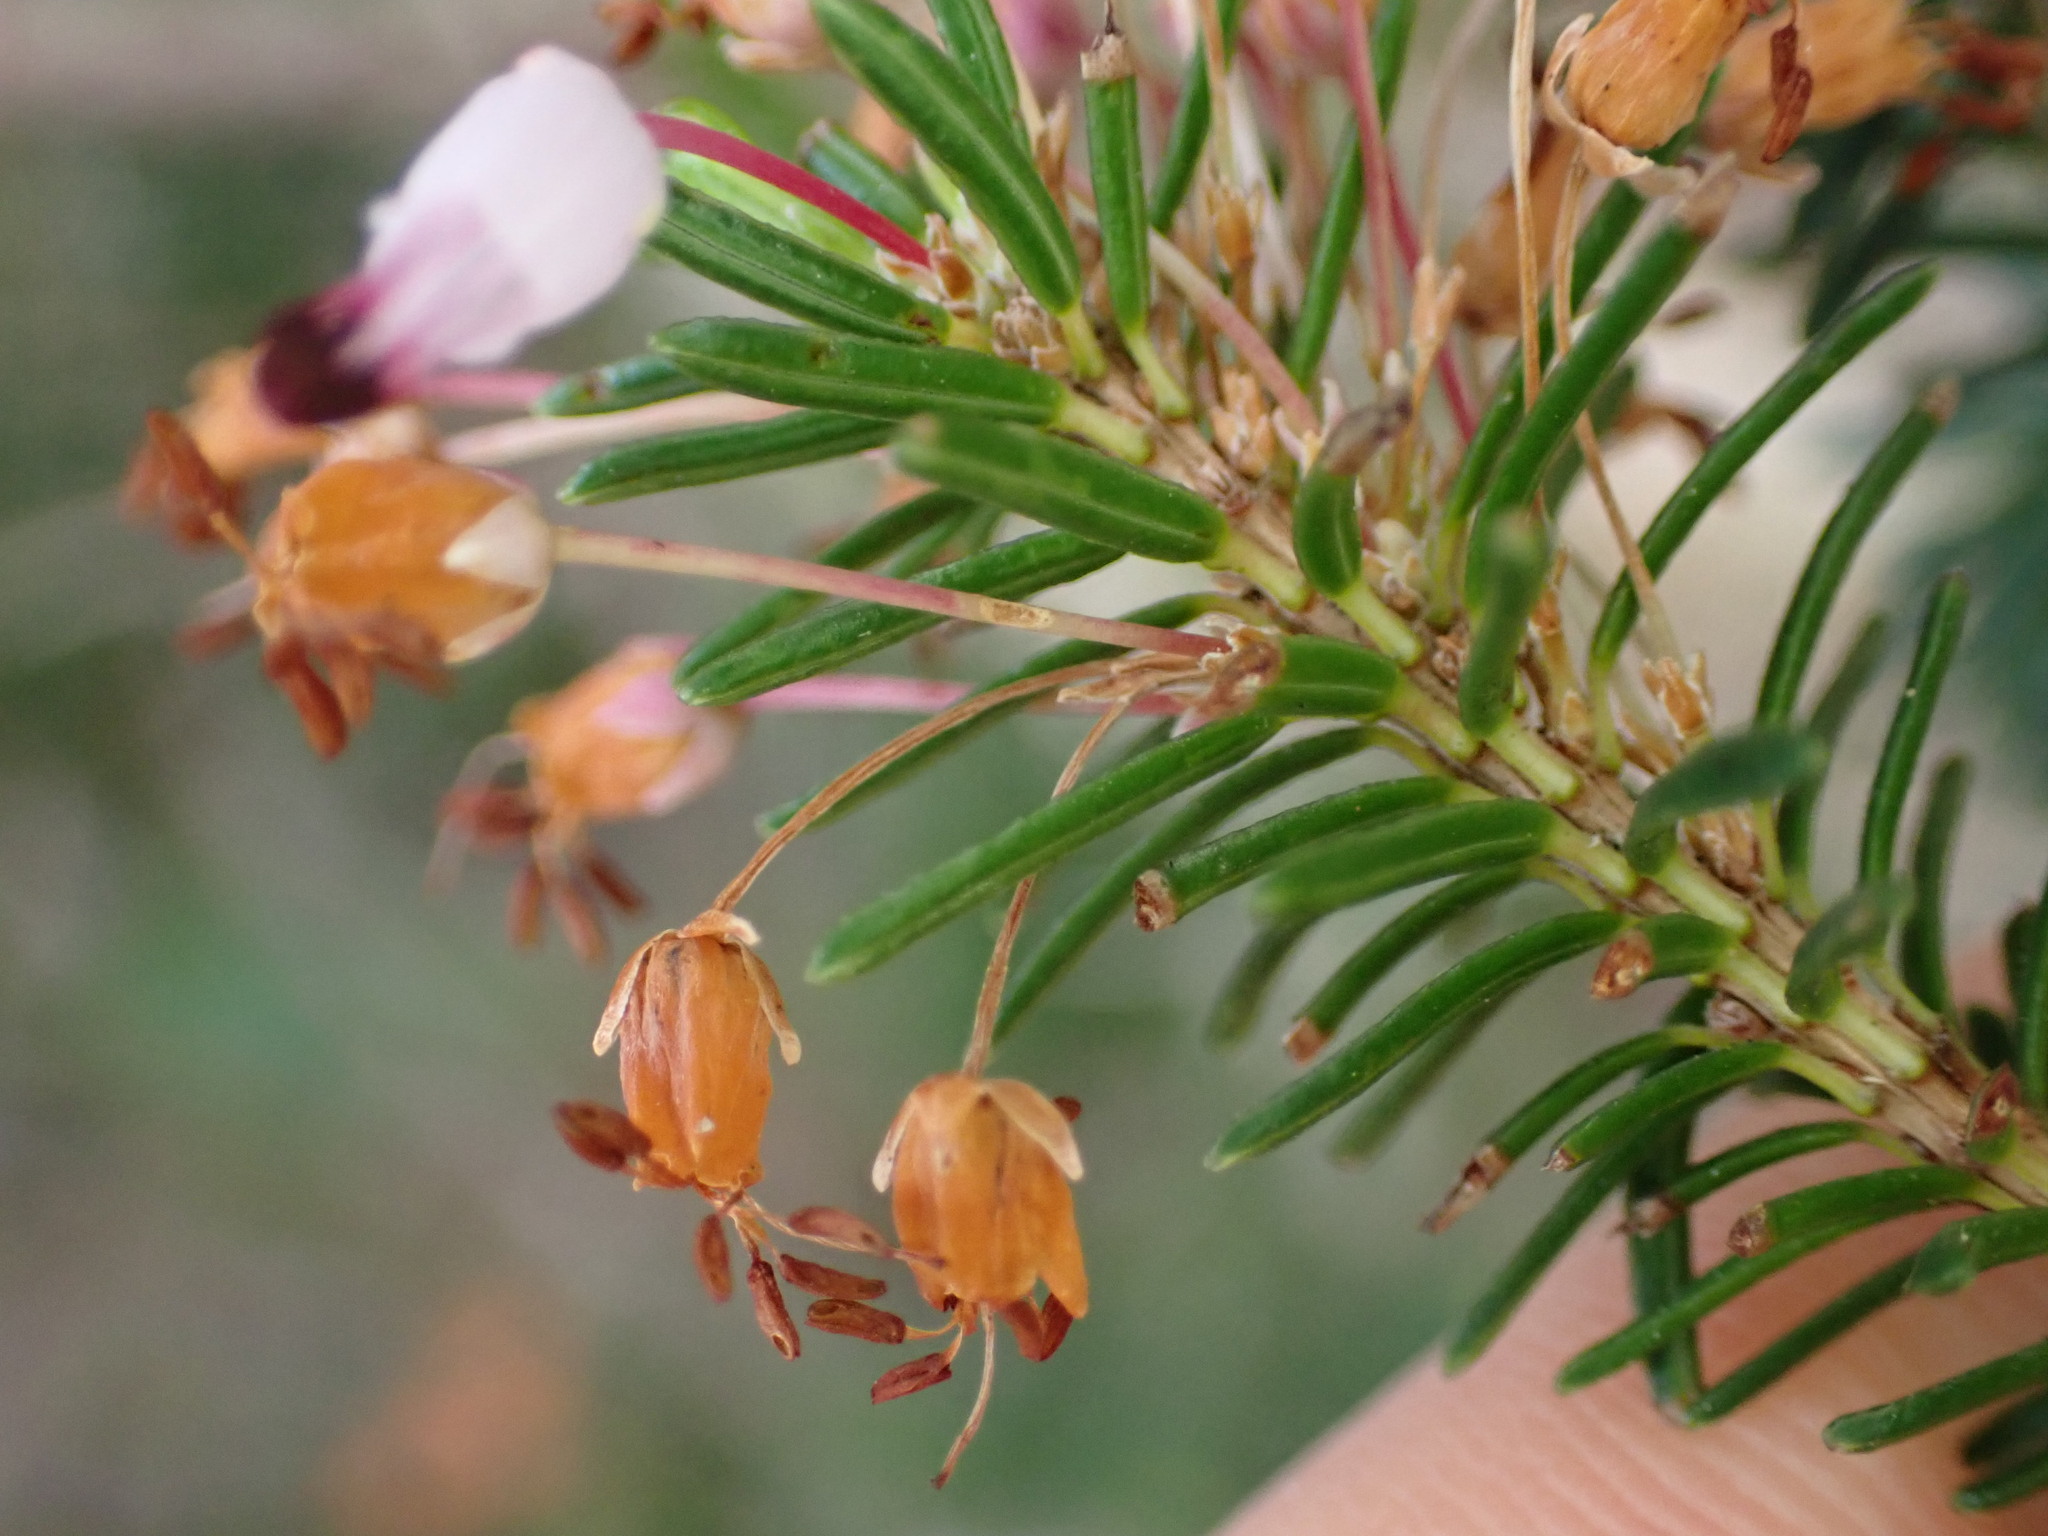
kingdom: Plantae
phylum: Tracheophyta
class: Magnoliopsida
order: Ericales
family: Ericaceae
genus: Erica
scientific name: Erica multiflora
